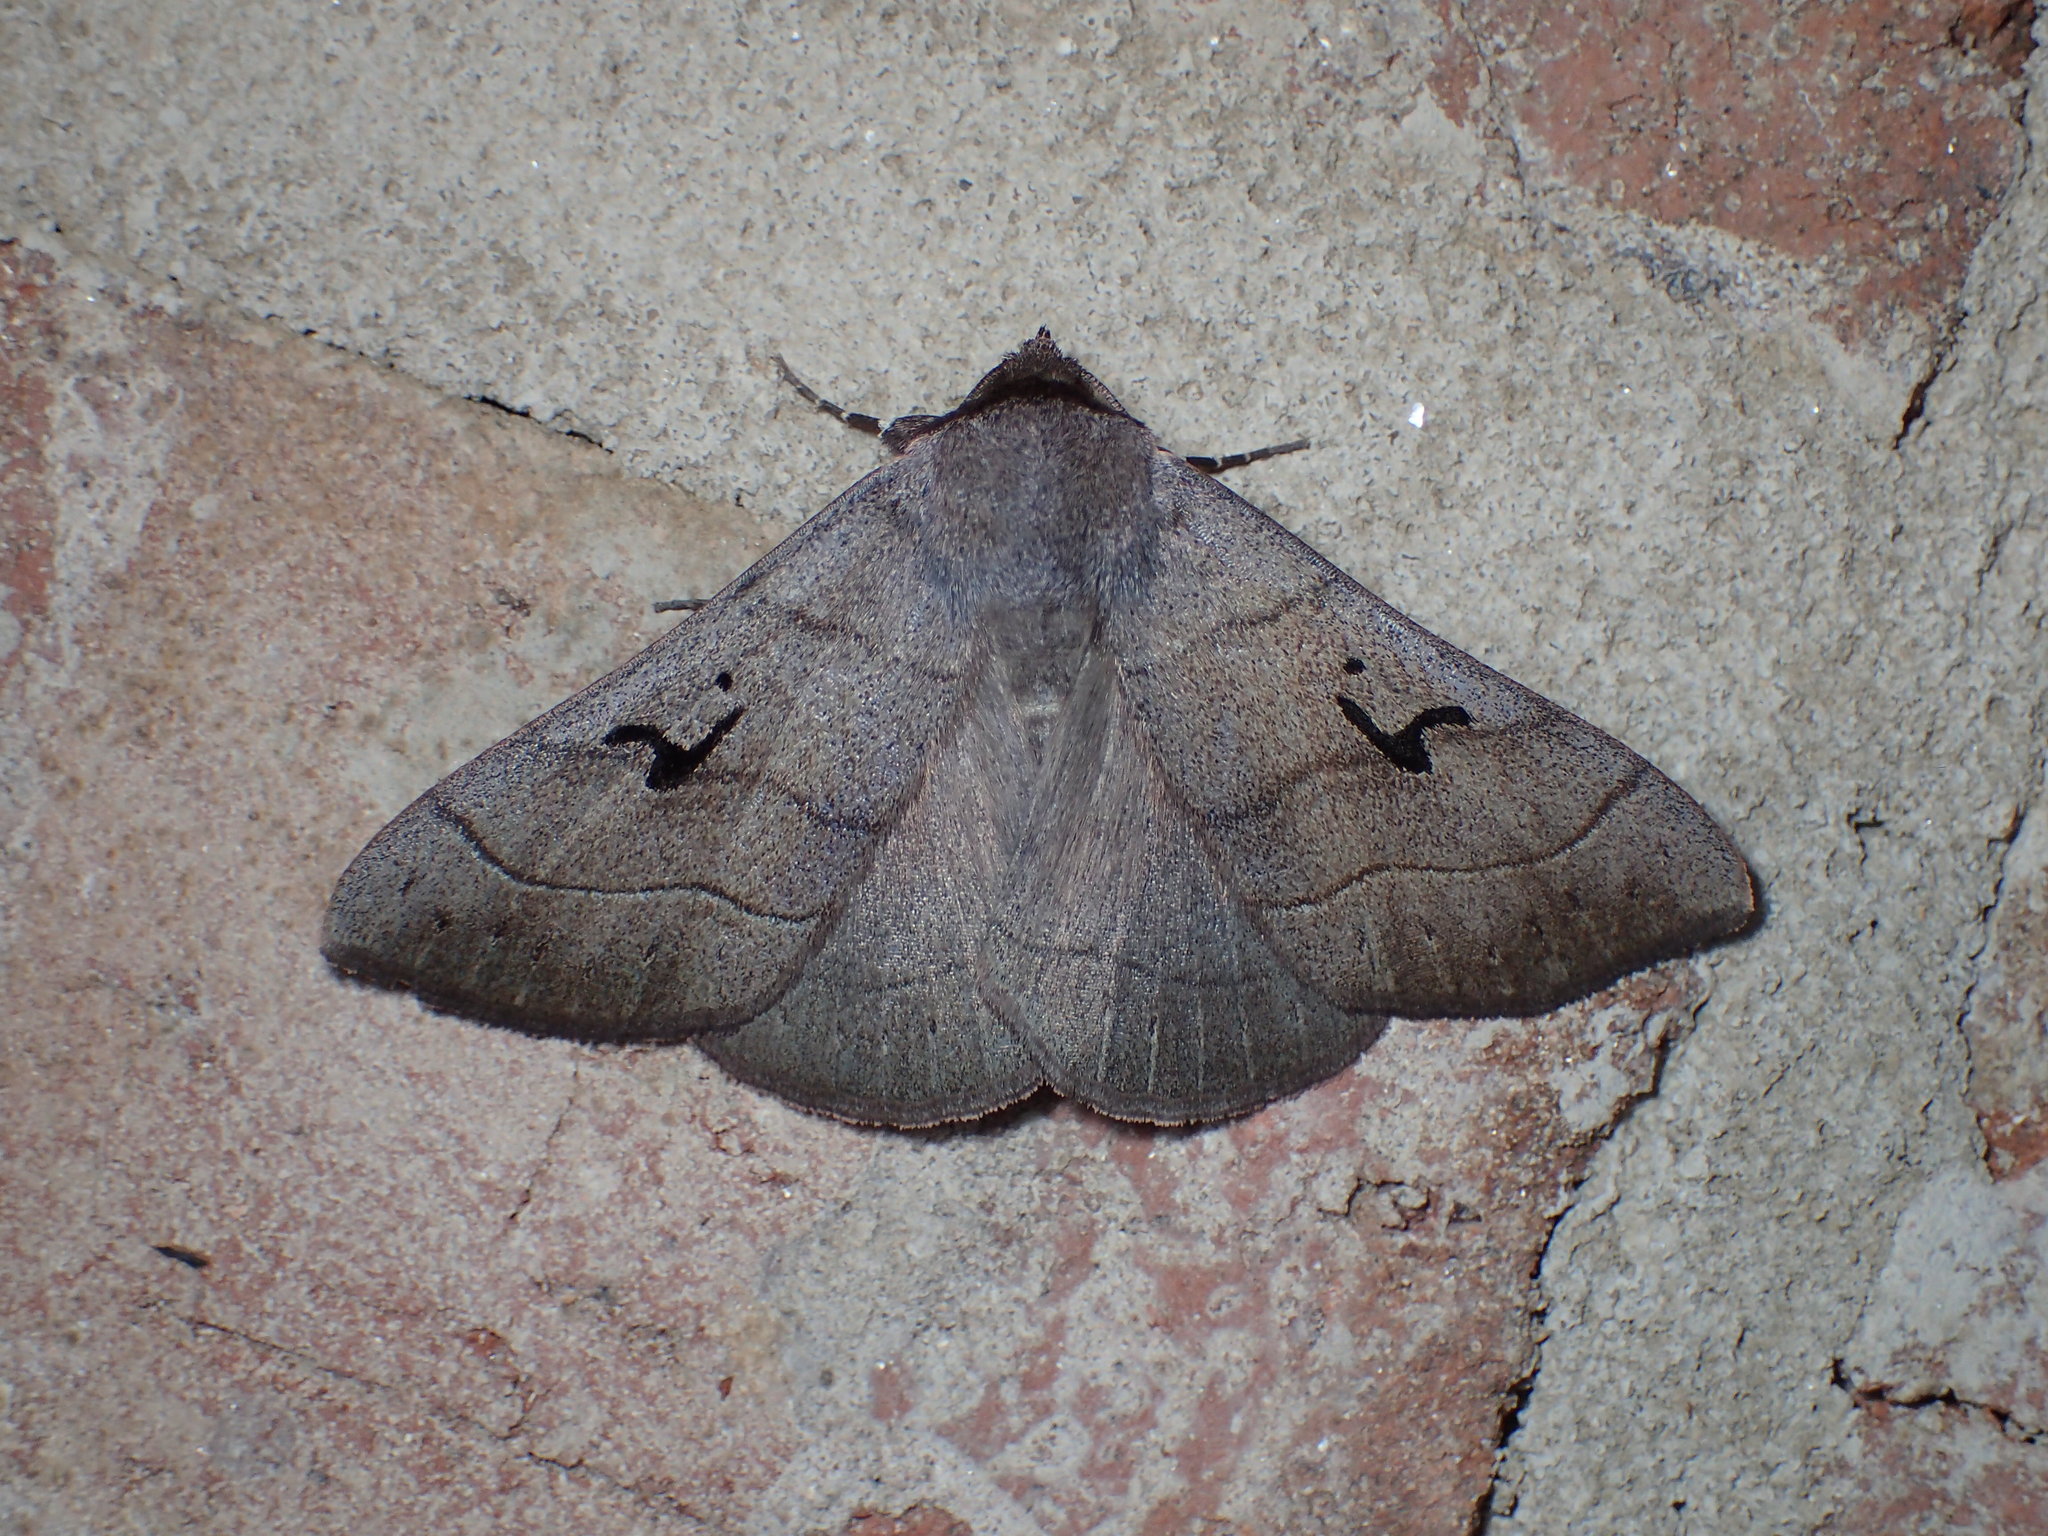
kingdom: Animalia
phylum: Arthropoda
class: Insecta
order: Lepidoptera
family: Erebidae
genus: Panopoda
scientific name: Panopoda carneicosta
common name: Brown panopoda moth
